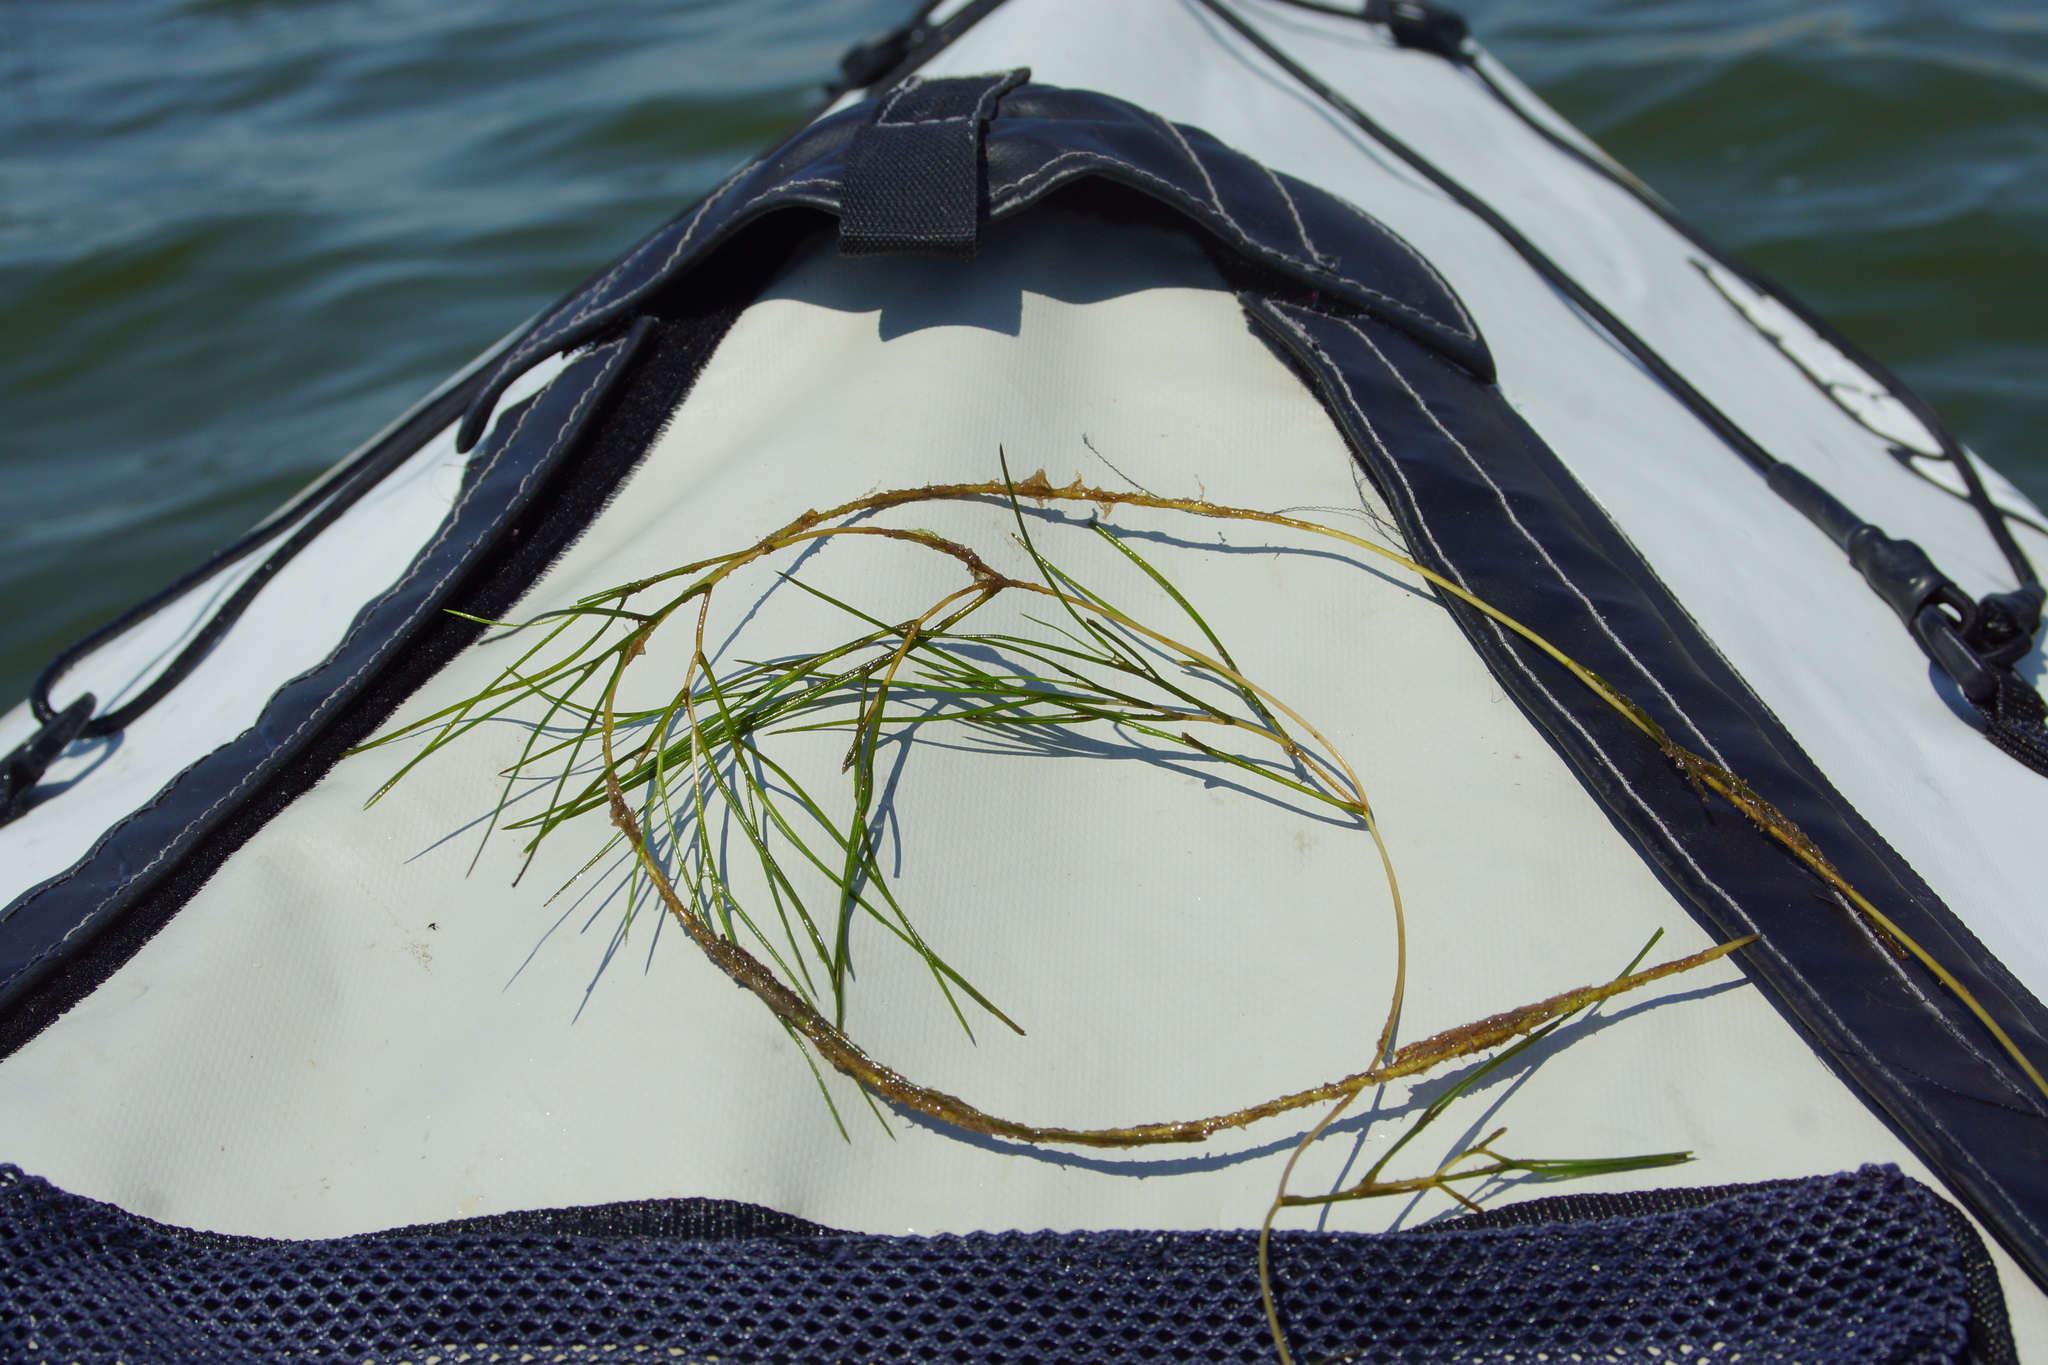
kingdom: Plantae
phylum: Tracheophyta
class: Liliopsida
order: Alismatales
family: Potamogetonaceae
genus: Stuckenia
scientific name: Stuckenia pectinata
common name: Sago pondweed
